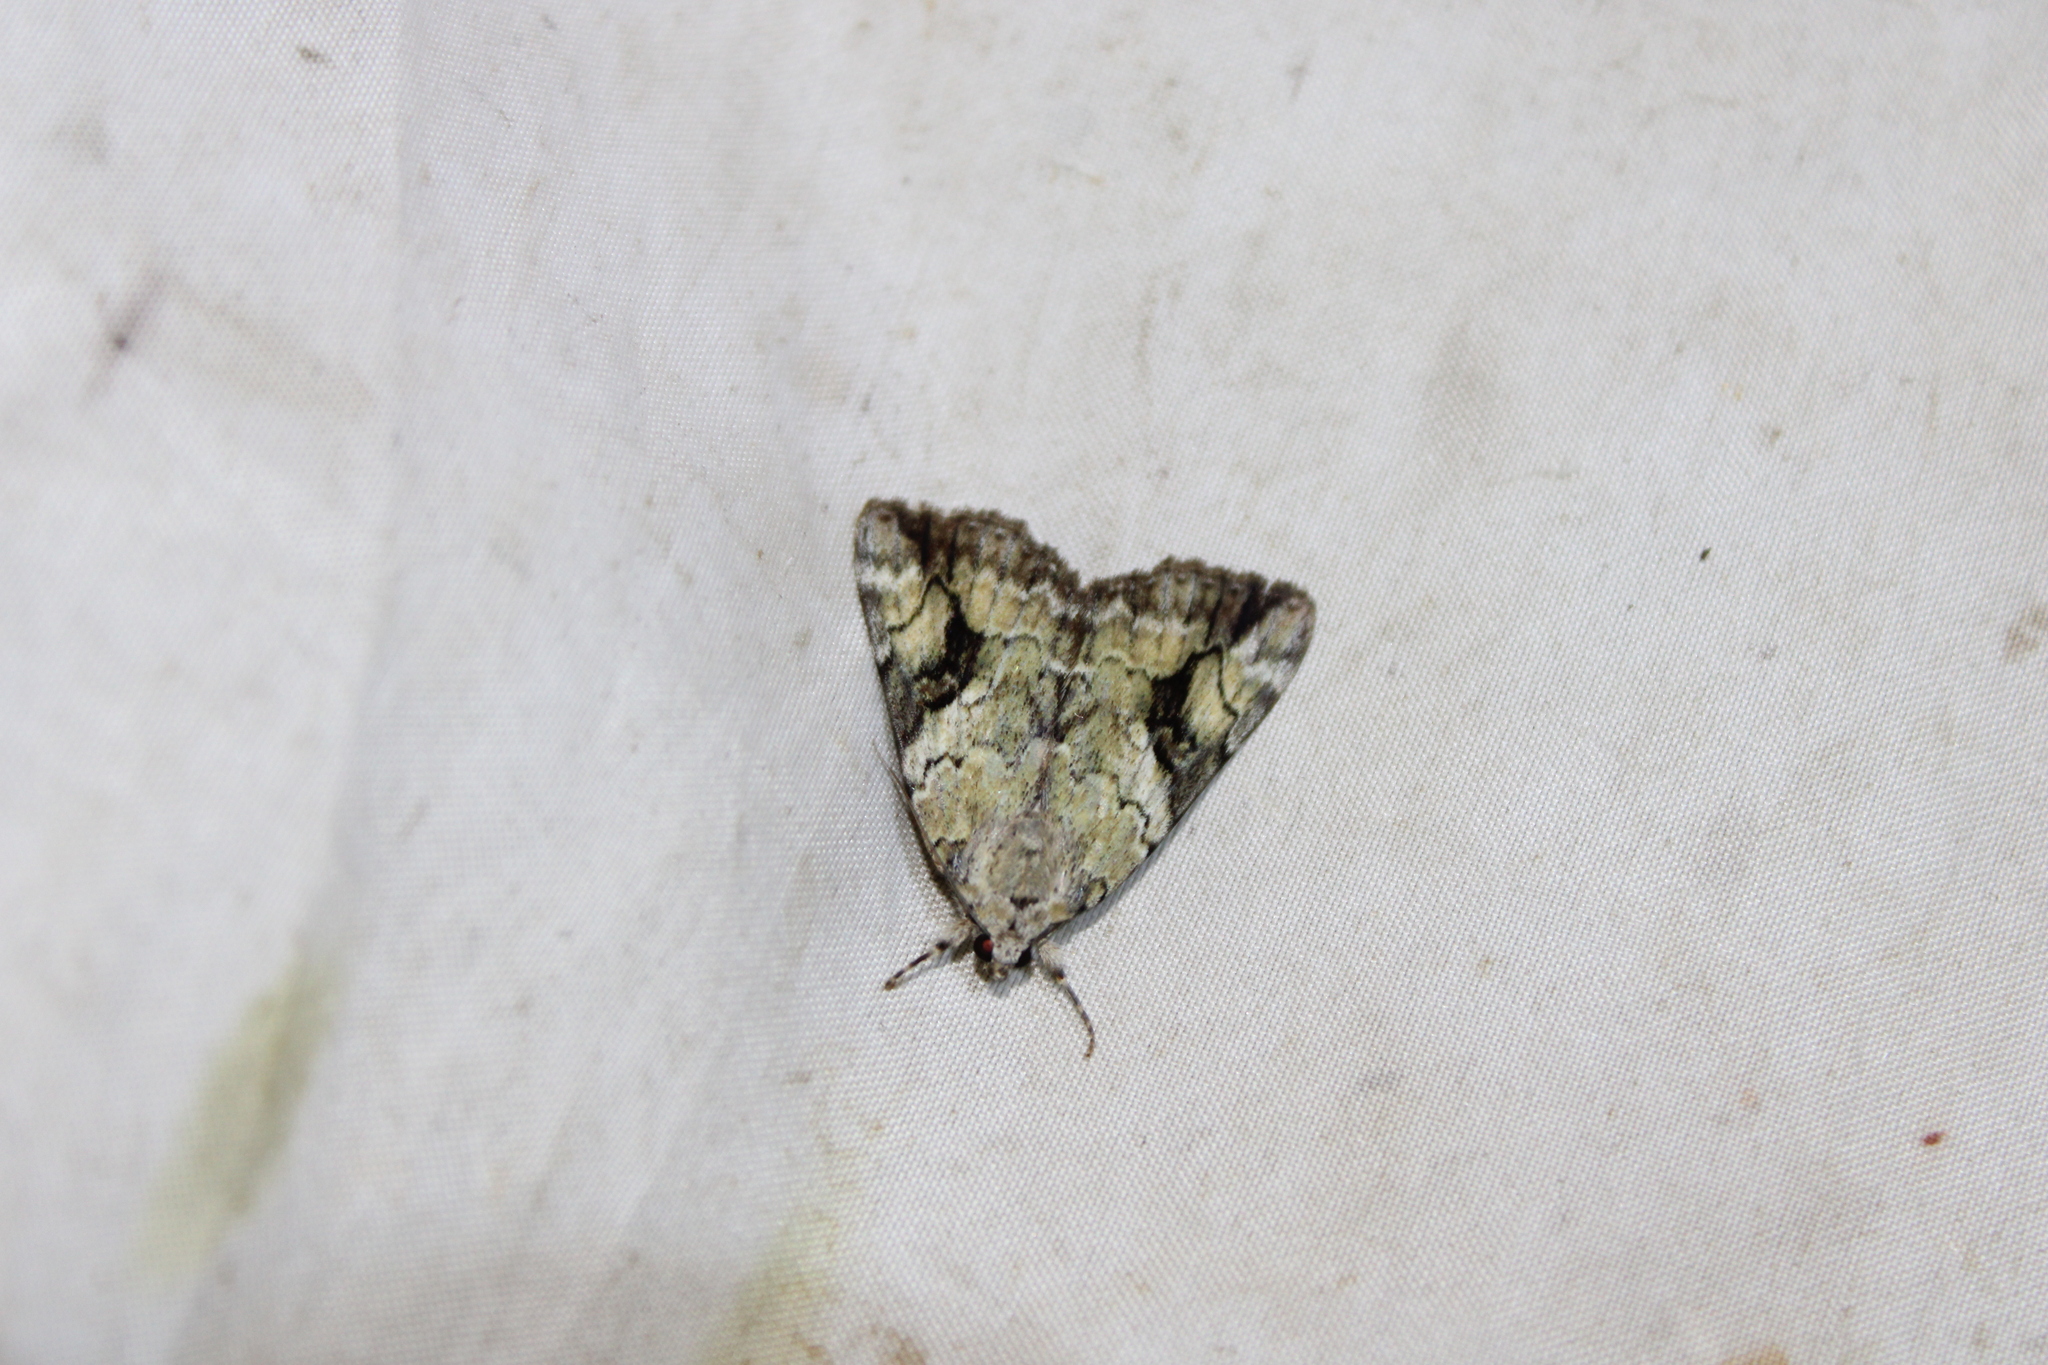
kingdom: Animalia
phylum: Arthropoda
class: Insecta
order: Lepidoptera
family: Erebidae
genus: Catocala
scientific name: Catocala micronympha
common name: Little nymph underwing
